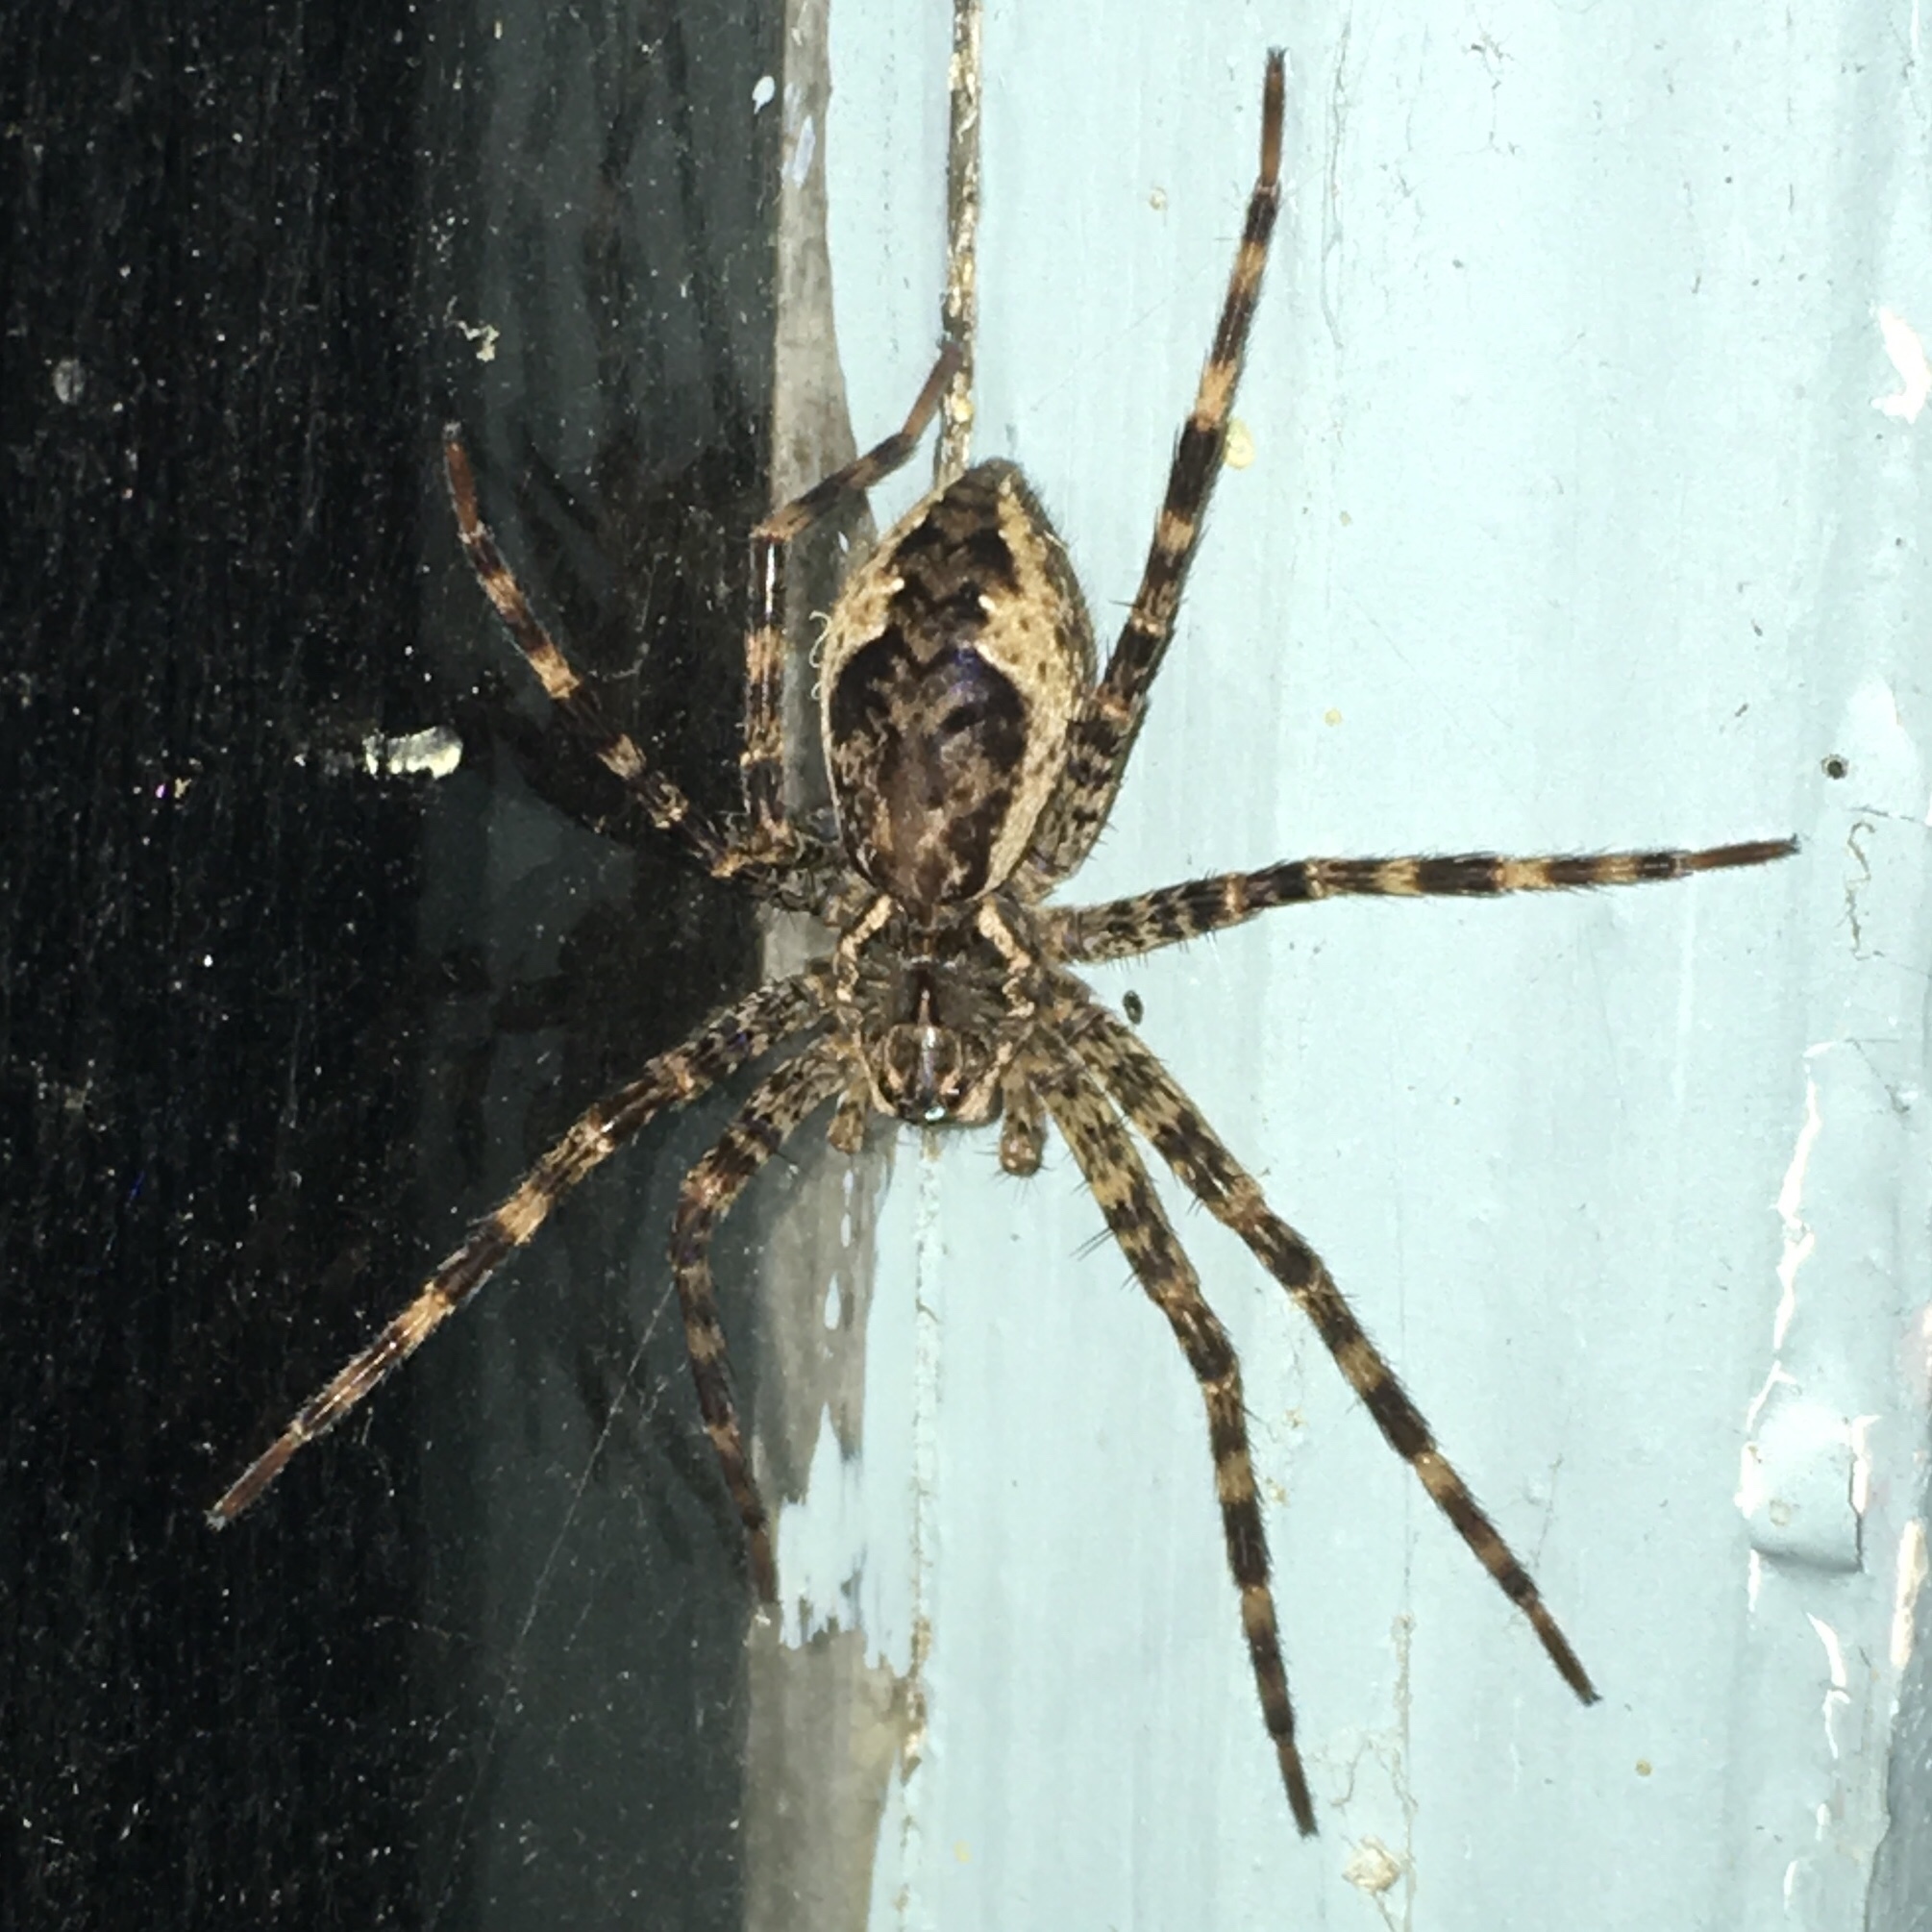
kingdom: Animalia
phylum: Arthropoda
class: Arachnida
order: Araneae
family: Pisauridae
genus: Dolomedes
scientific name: Dolomedes tenebrosus
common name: Dark fishing spider
